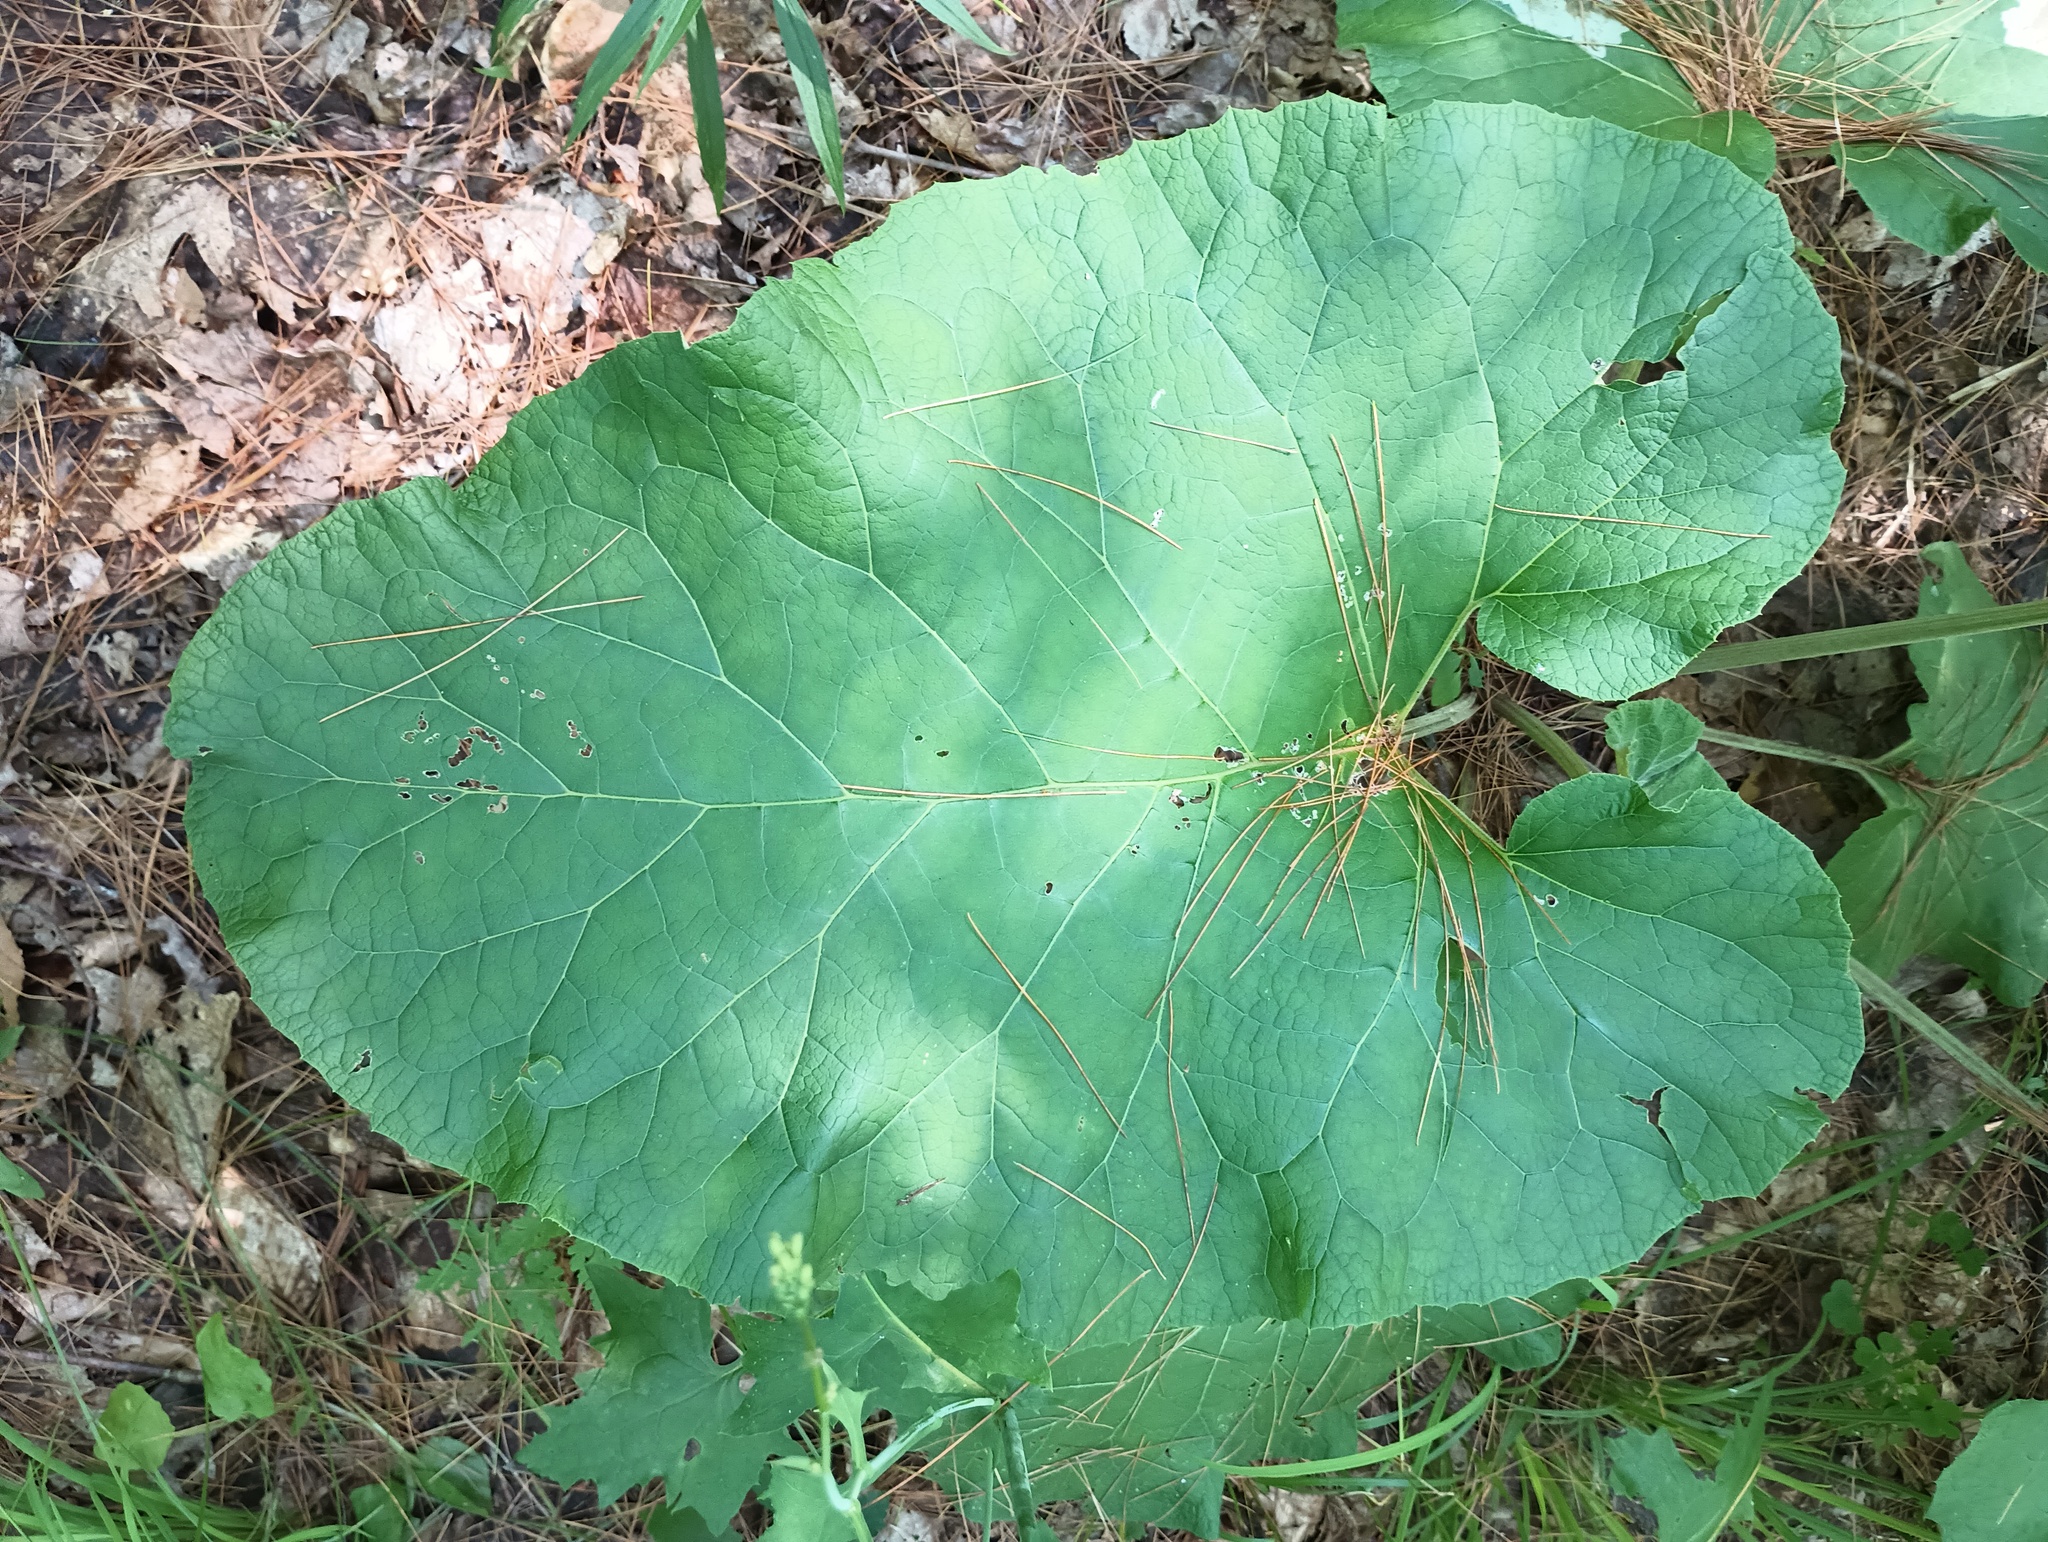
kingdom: Plantae
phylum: Tracheophyta
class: Magnoliopsida
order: Asterales
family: Asteraceae
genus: Arctium
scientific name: Arctium
